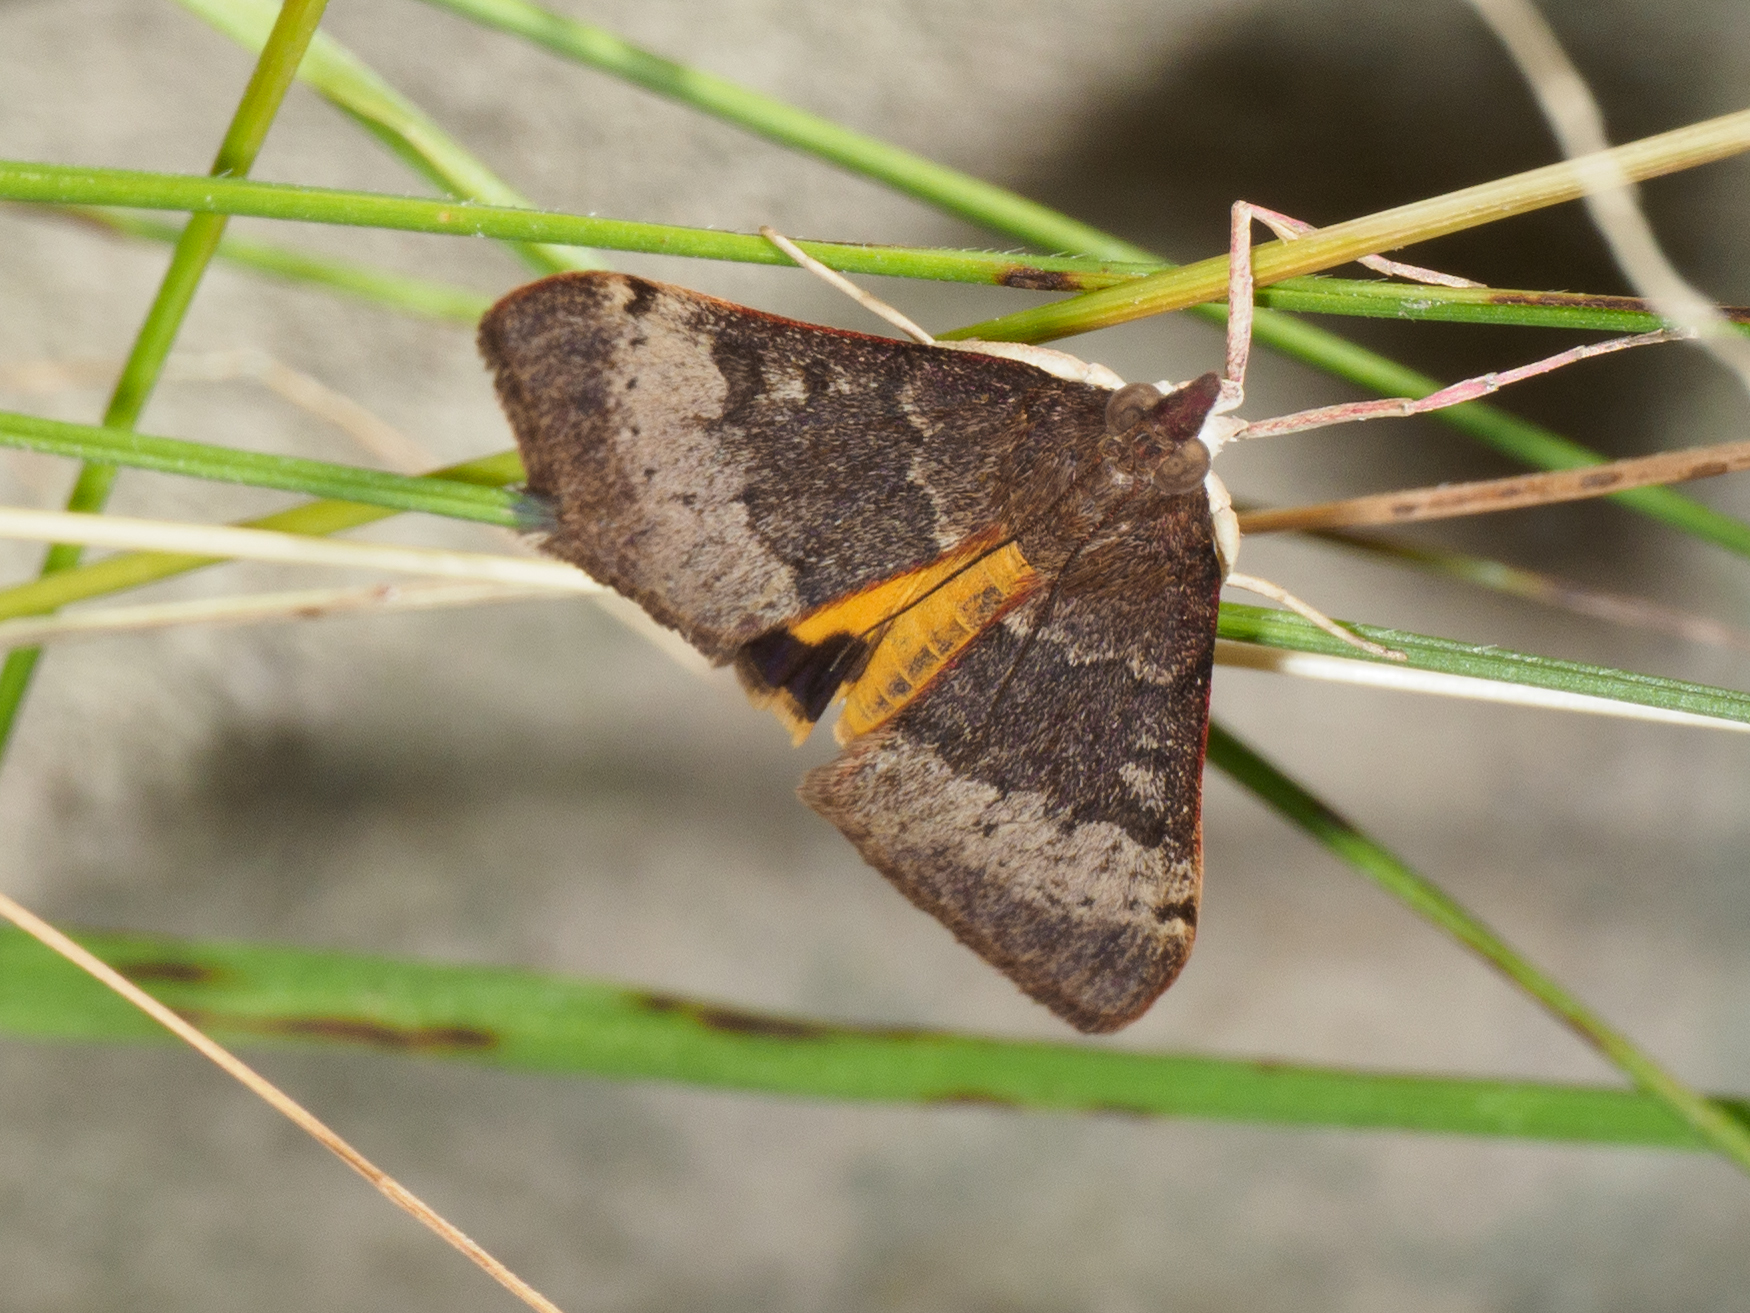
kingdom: Animalia
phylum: Arthropoda
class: Insecta
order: Lepidoptera
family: Crambidae
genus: Uresiphita
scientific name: Uresiphita ornithopteralis
